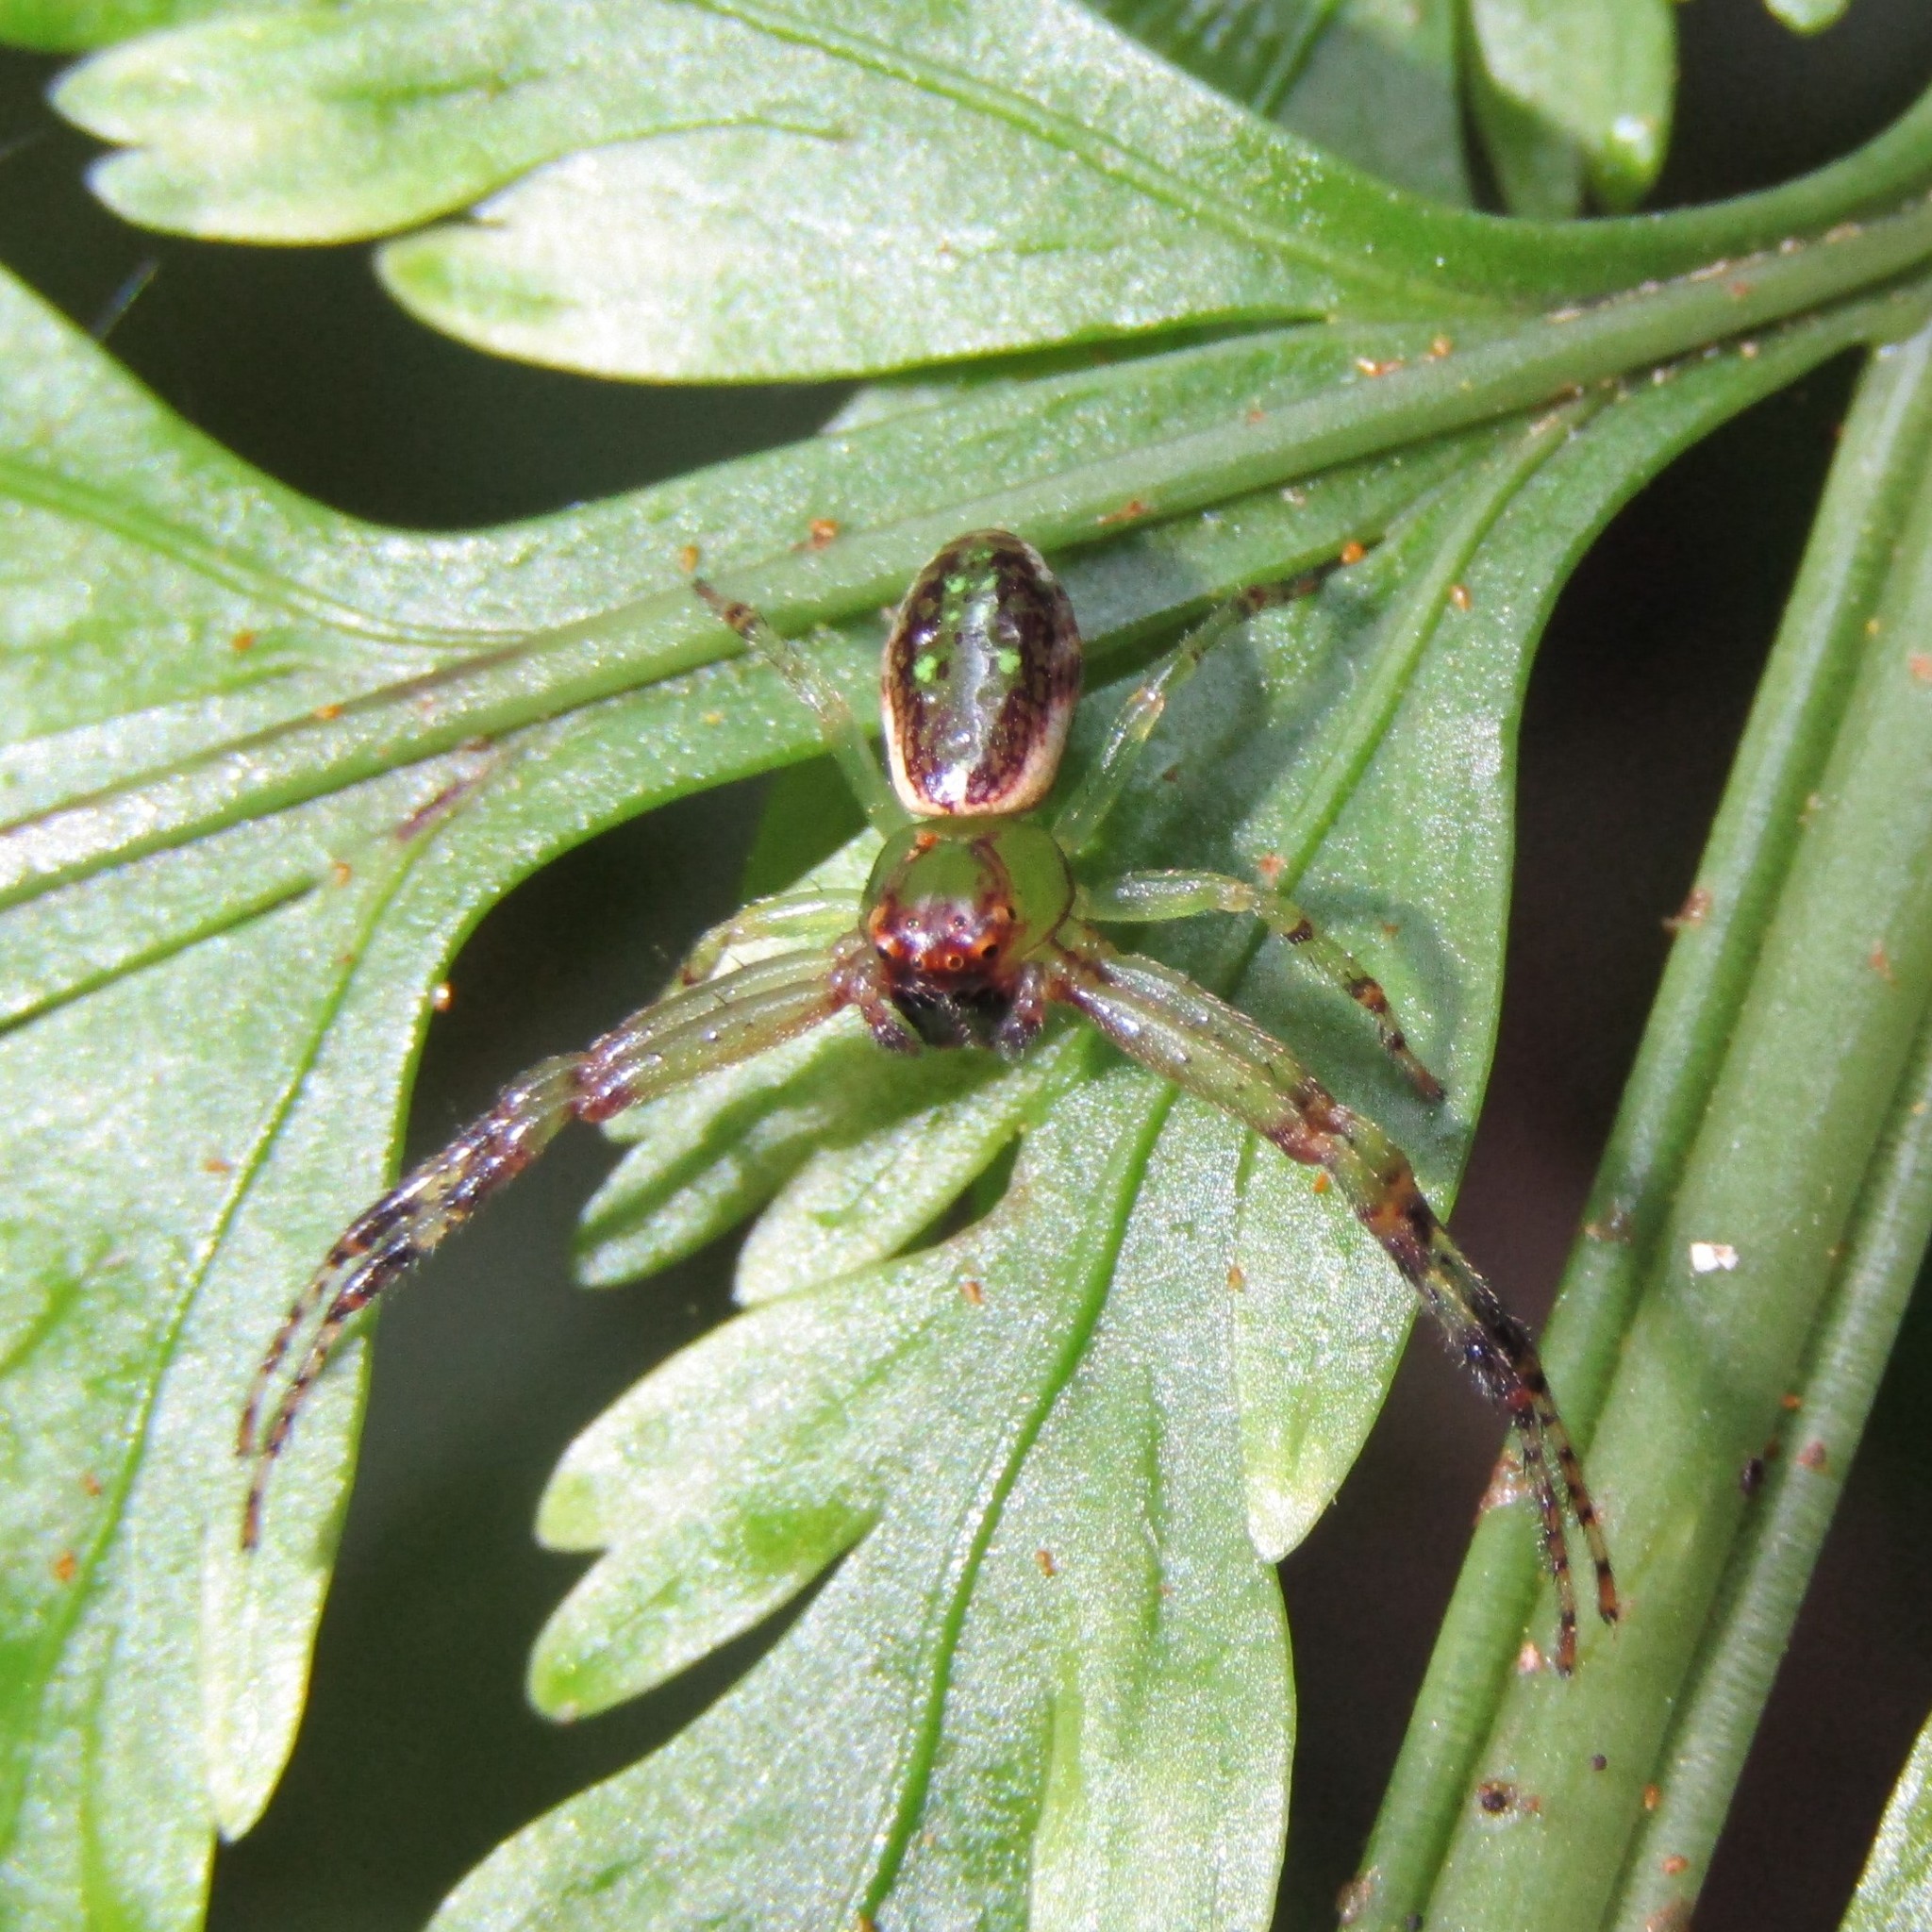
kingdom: Animalia
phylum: Arthropoda
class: Arachnida
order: Araneae
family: Thomisidae
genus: Diaea
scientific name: Diaea ambara
